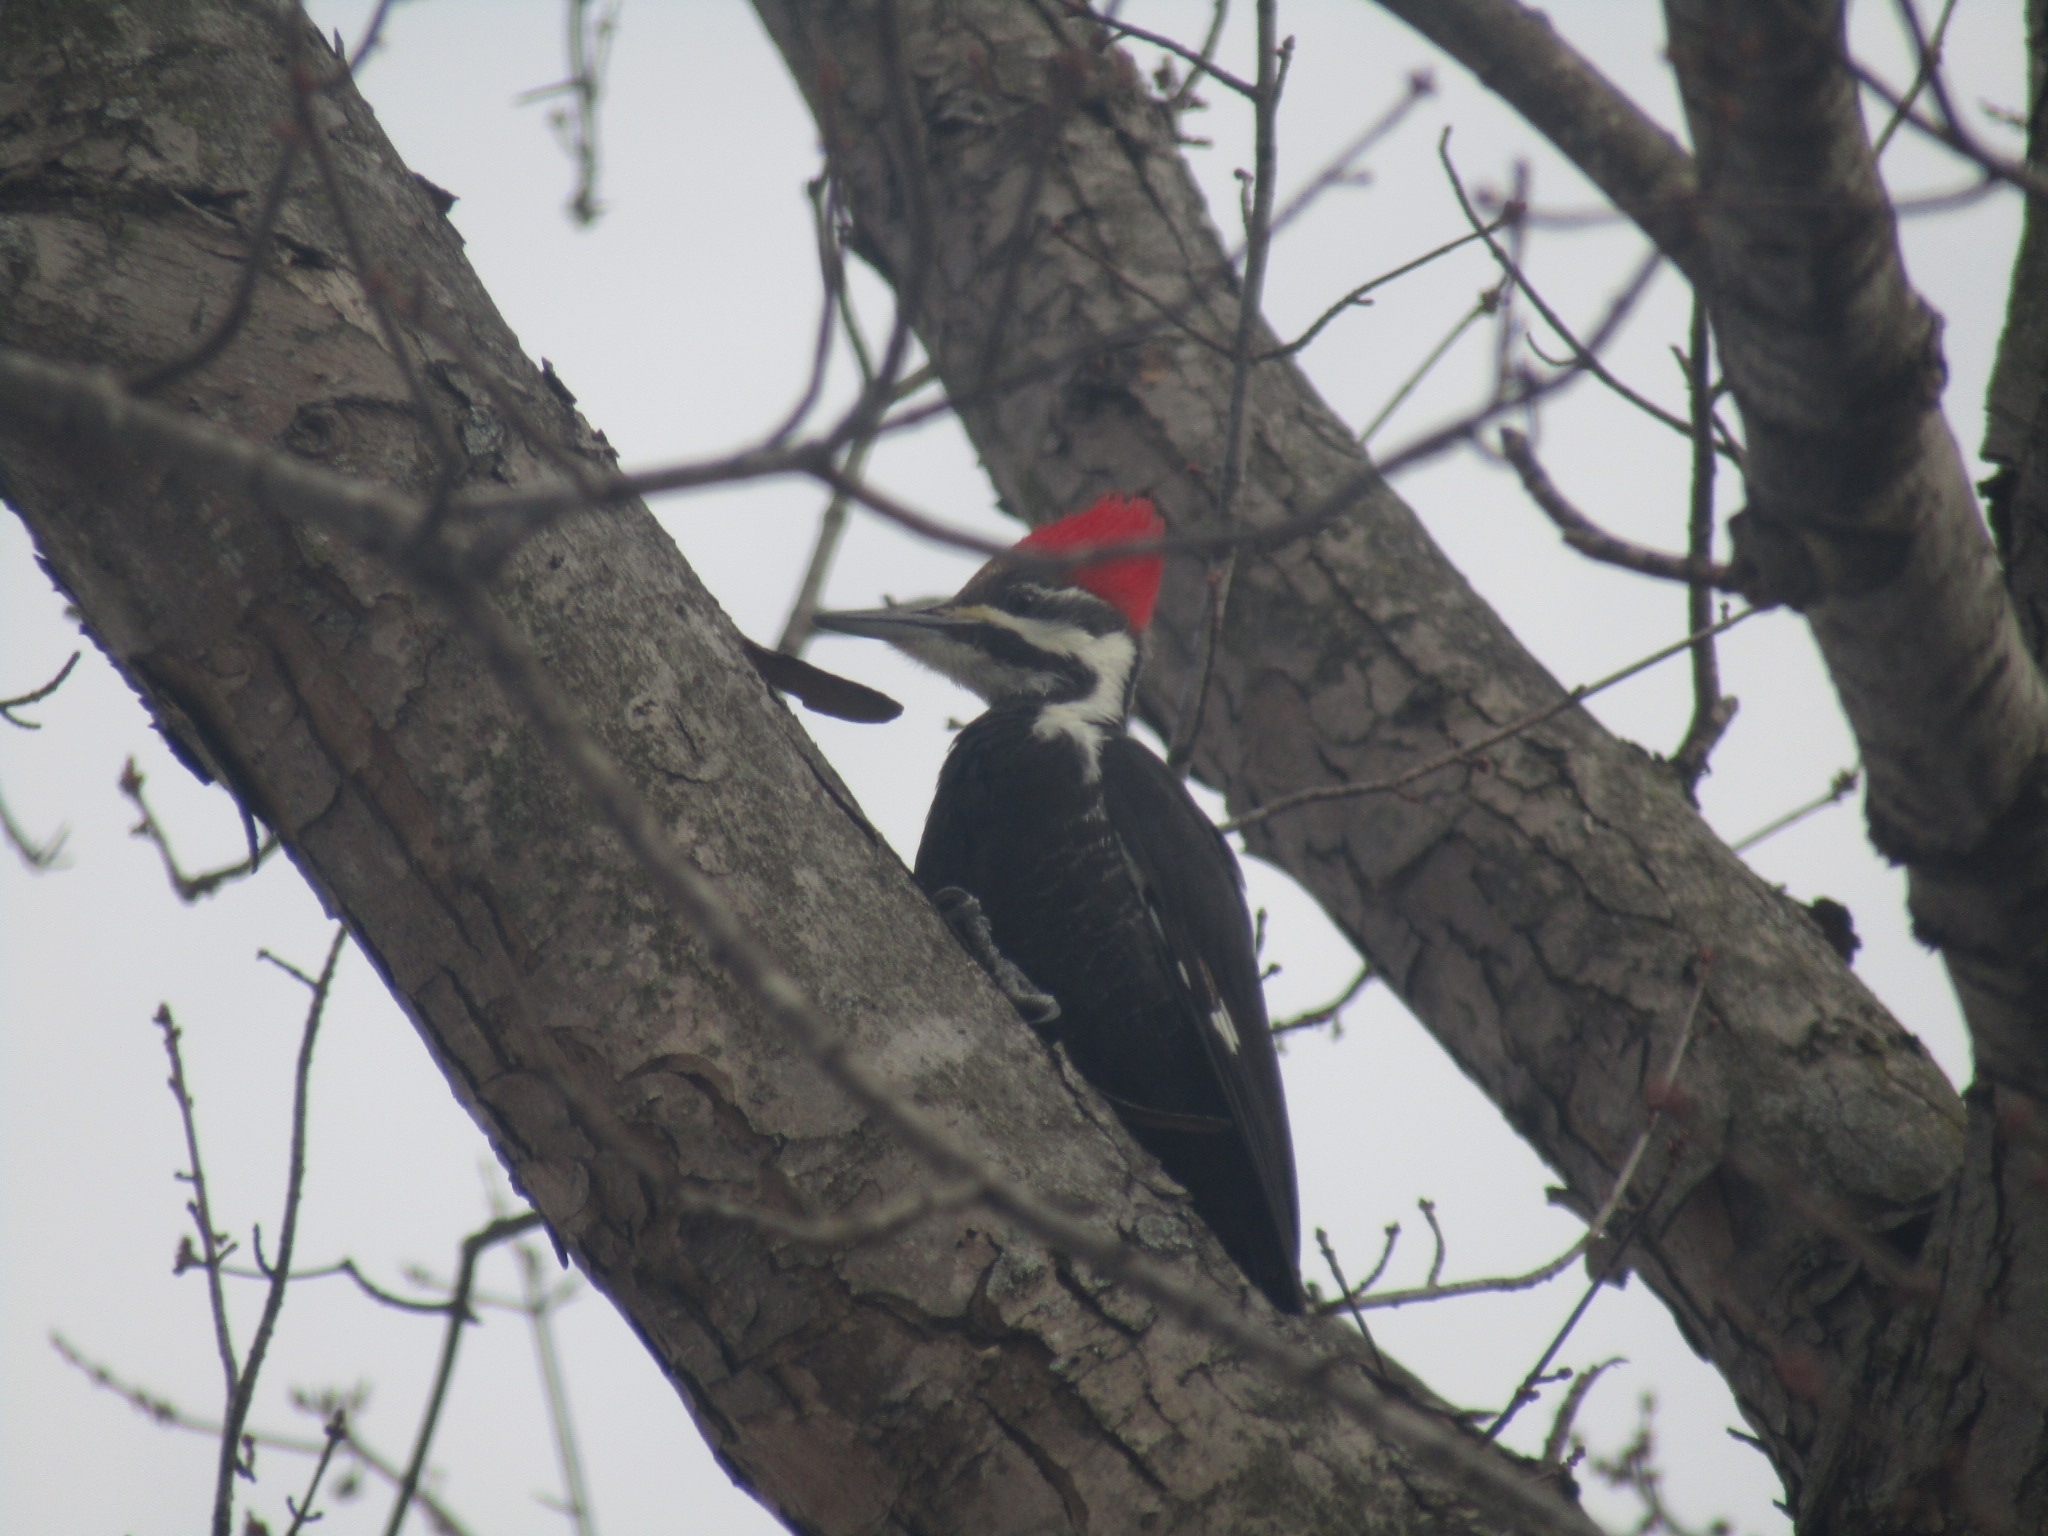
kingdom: Animalia
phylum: Chordata
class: Aves
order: Piciformes
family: Picidae
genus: Dryocopus
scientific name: Dryocopus pileatus
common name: Pileated woodpecker
